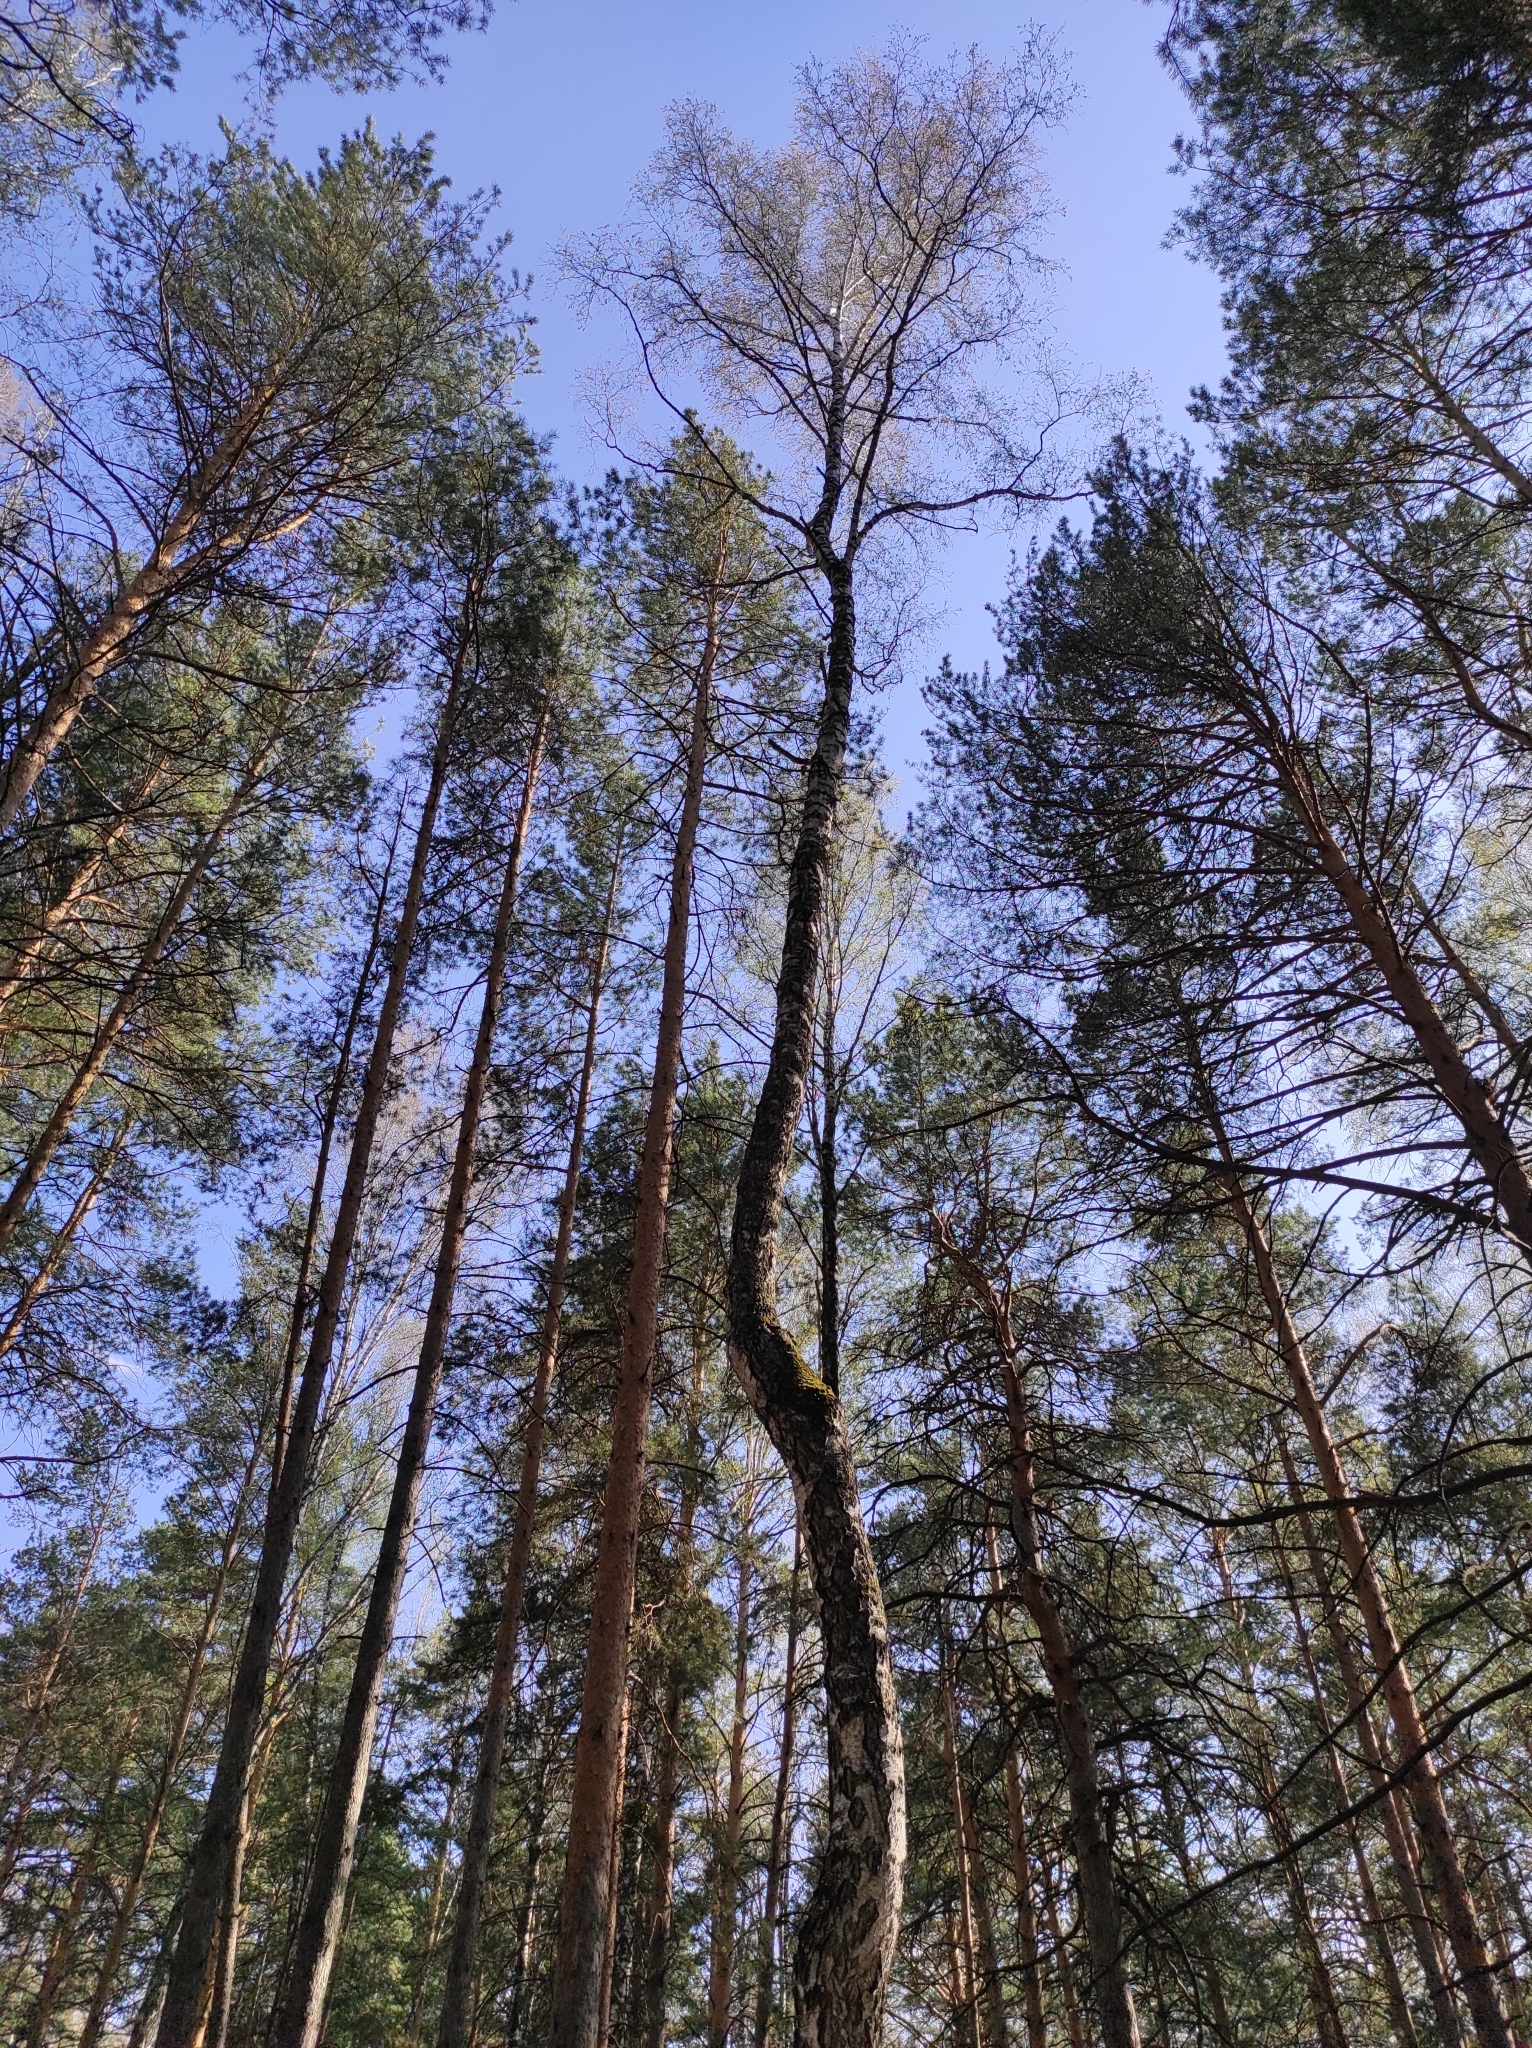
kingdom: Plantae
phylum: Tracheophyta
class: Pinopsida
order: Pinales
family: Pinaceae
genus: Pinus
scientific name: Pinus sylvestris
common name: Scots pine
